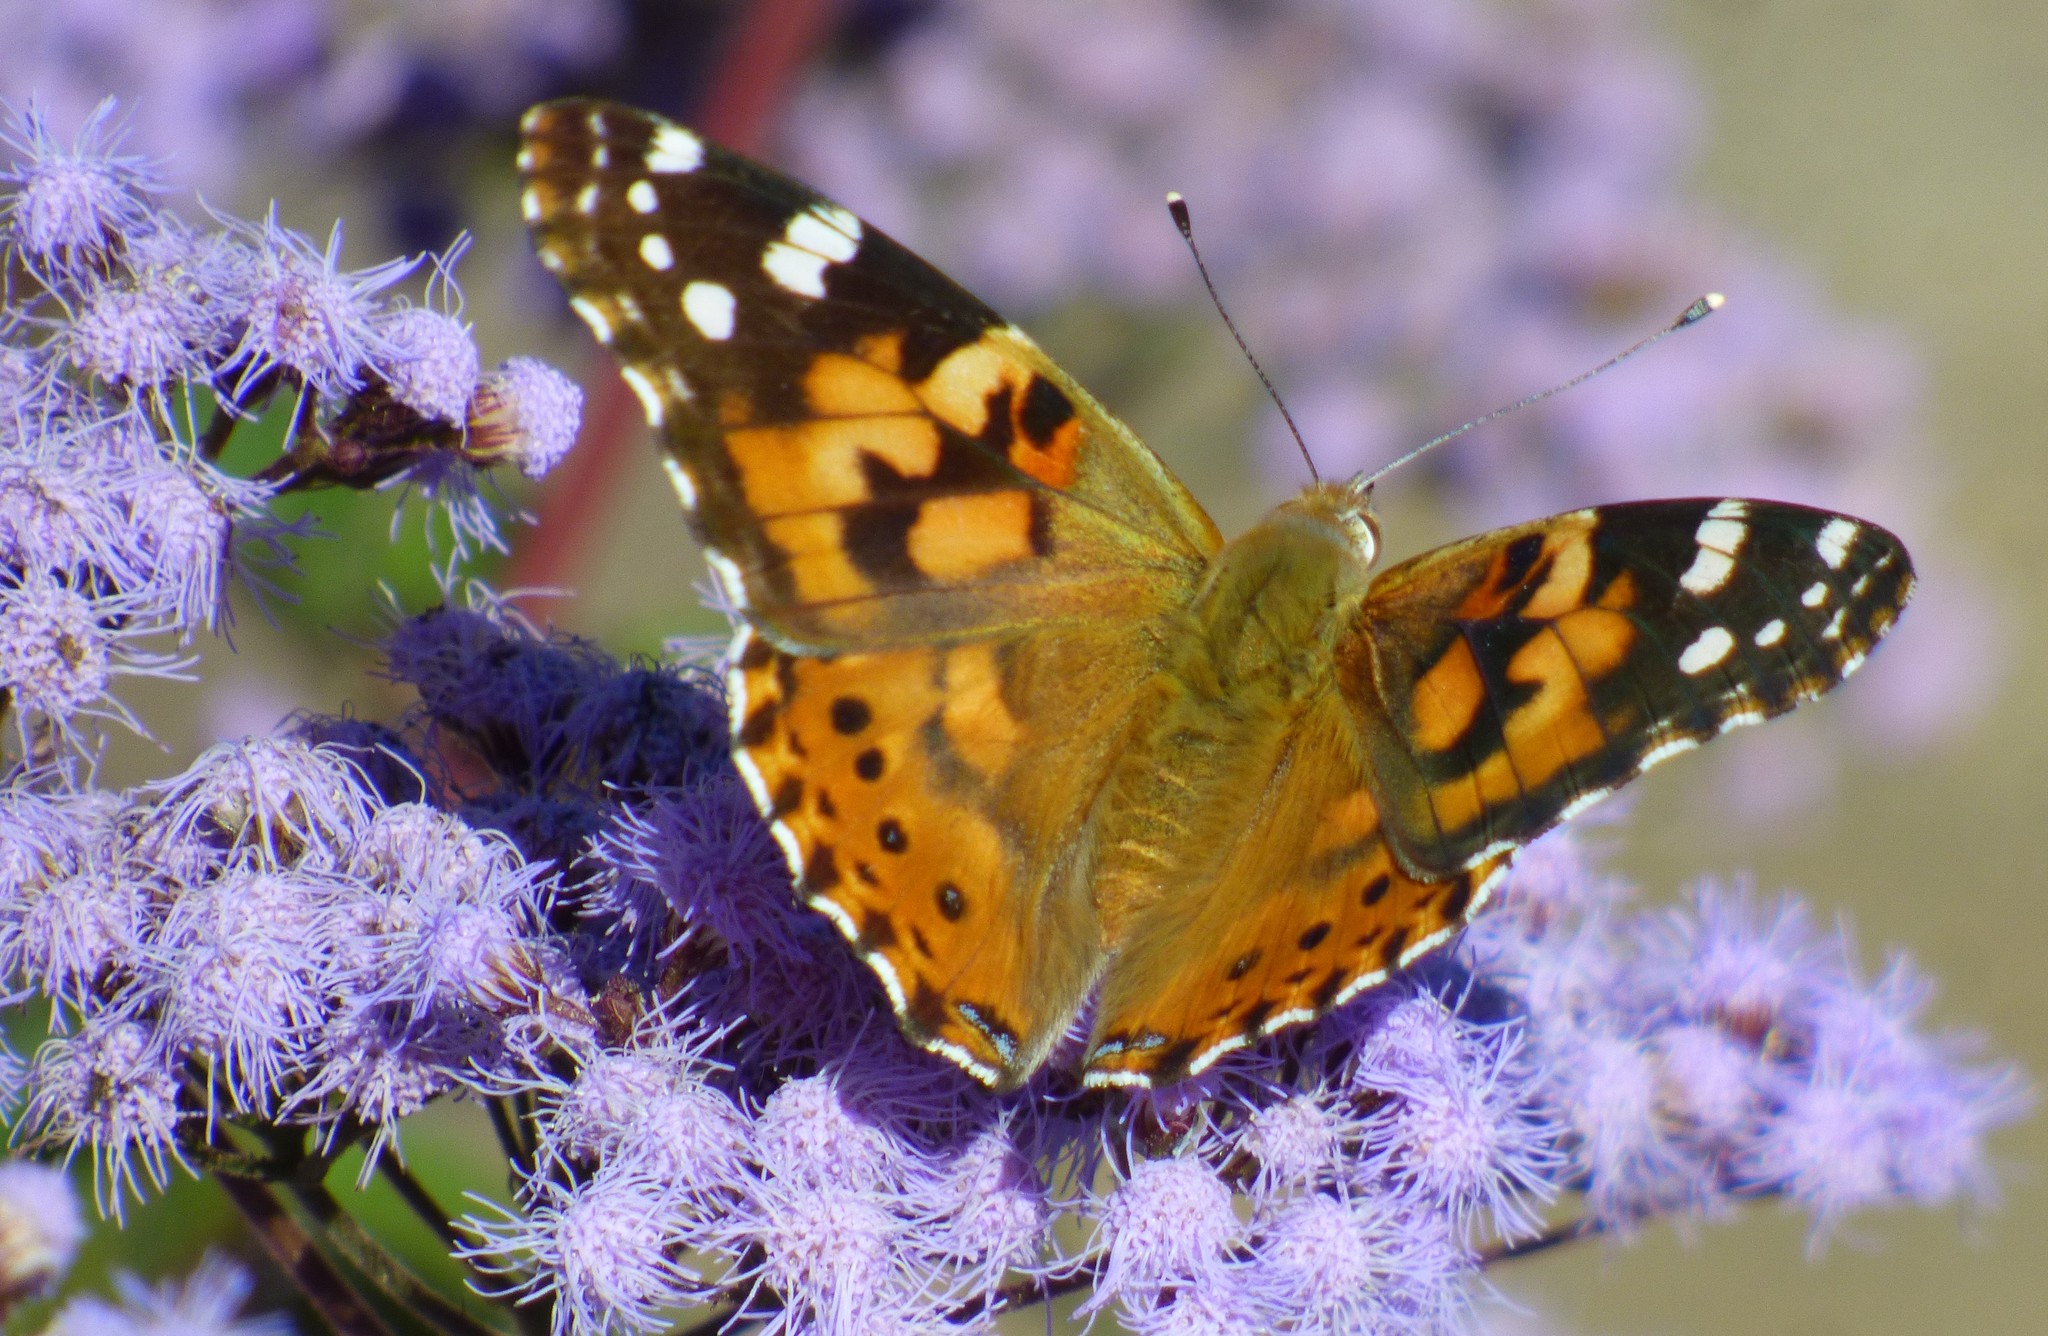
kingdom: Animalia
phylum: Arthropoda
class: Insecta
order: Lepidoptera
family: Nymphalidae
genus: Vanessa
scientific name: Vanessa cardui
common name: Painted lady
